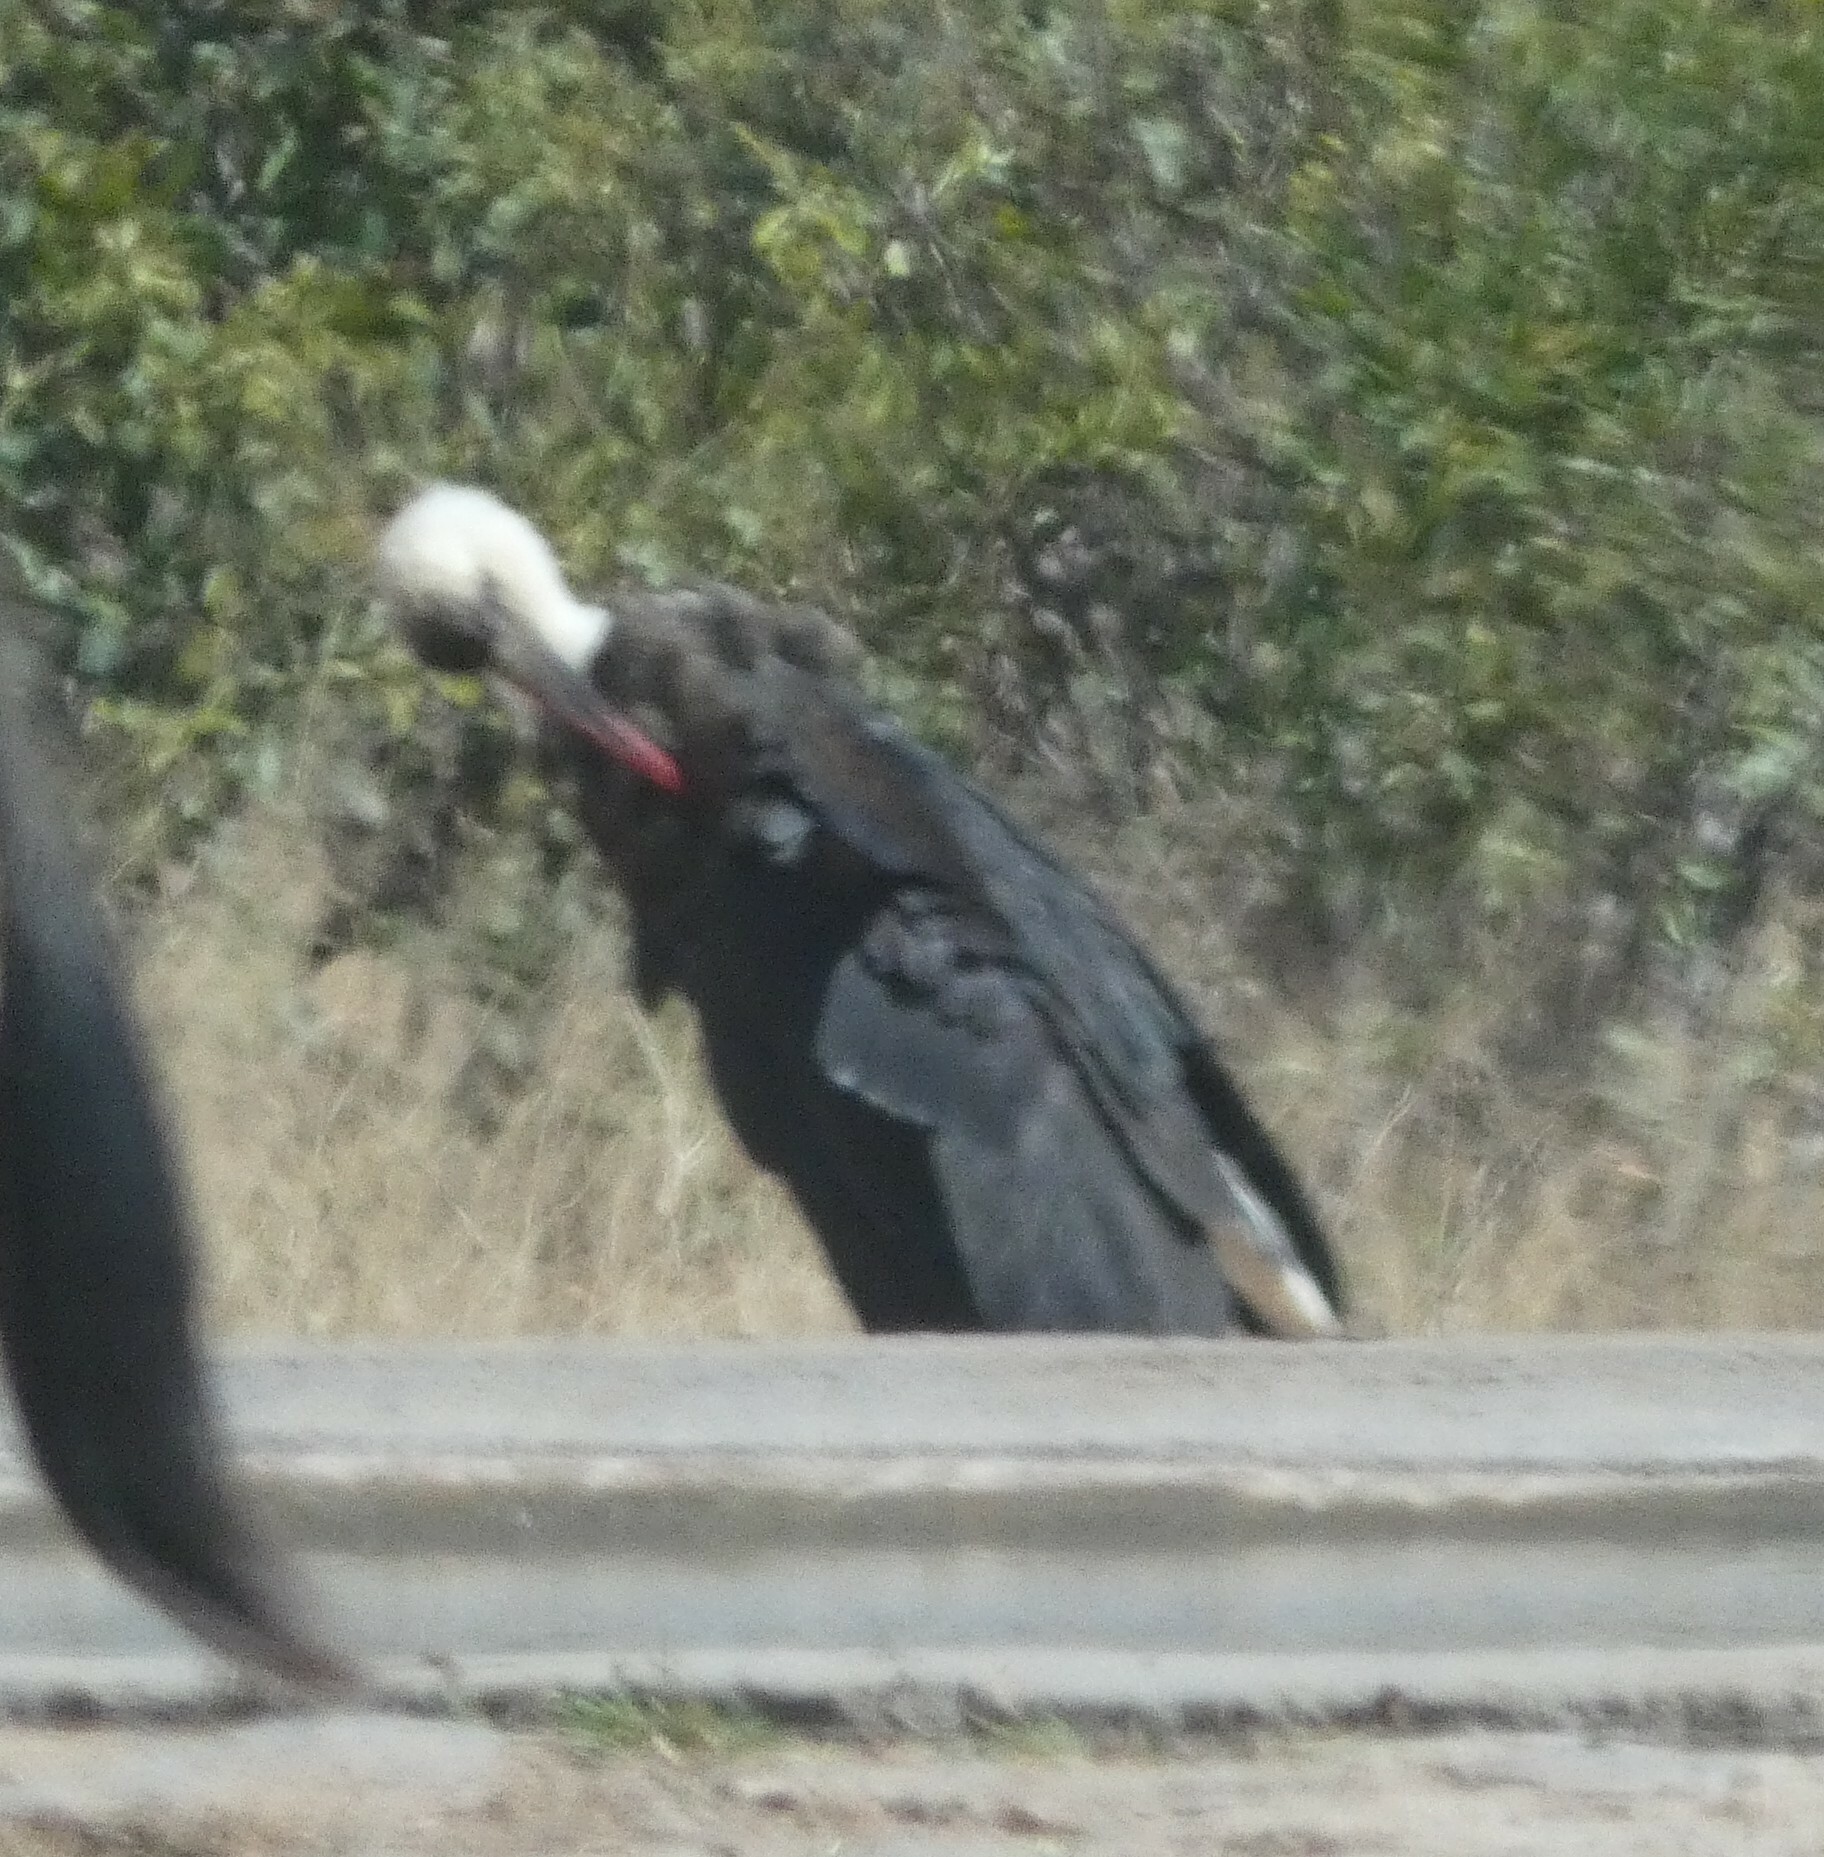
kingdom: Animalia
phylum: Chordata
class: Aves
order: Ciconiiformes
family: Ciconiidae
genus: Ciconia
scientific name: Ciconia microscelis
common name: African woollyneck
